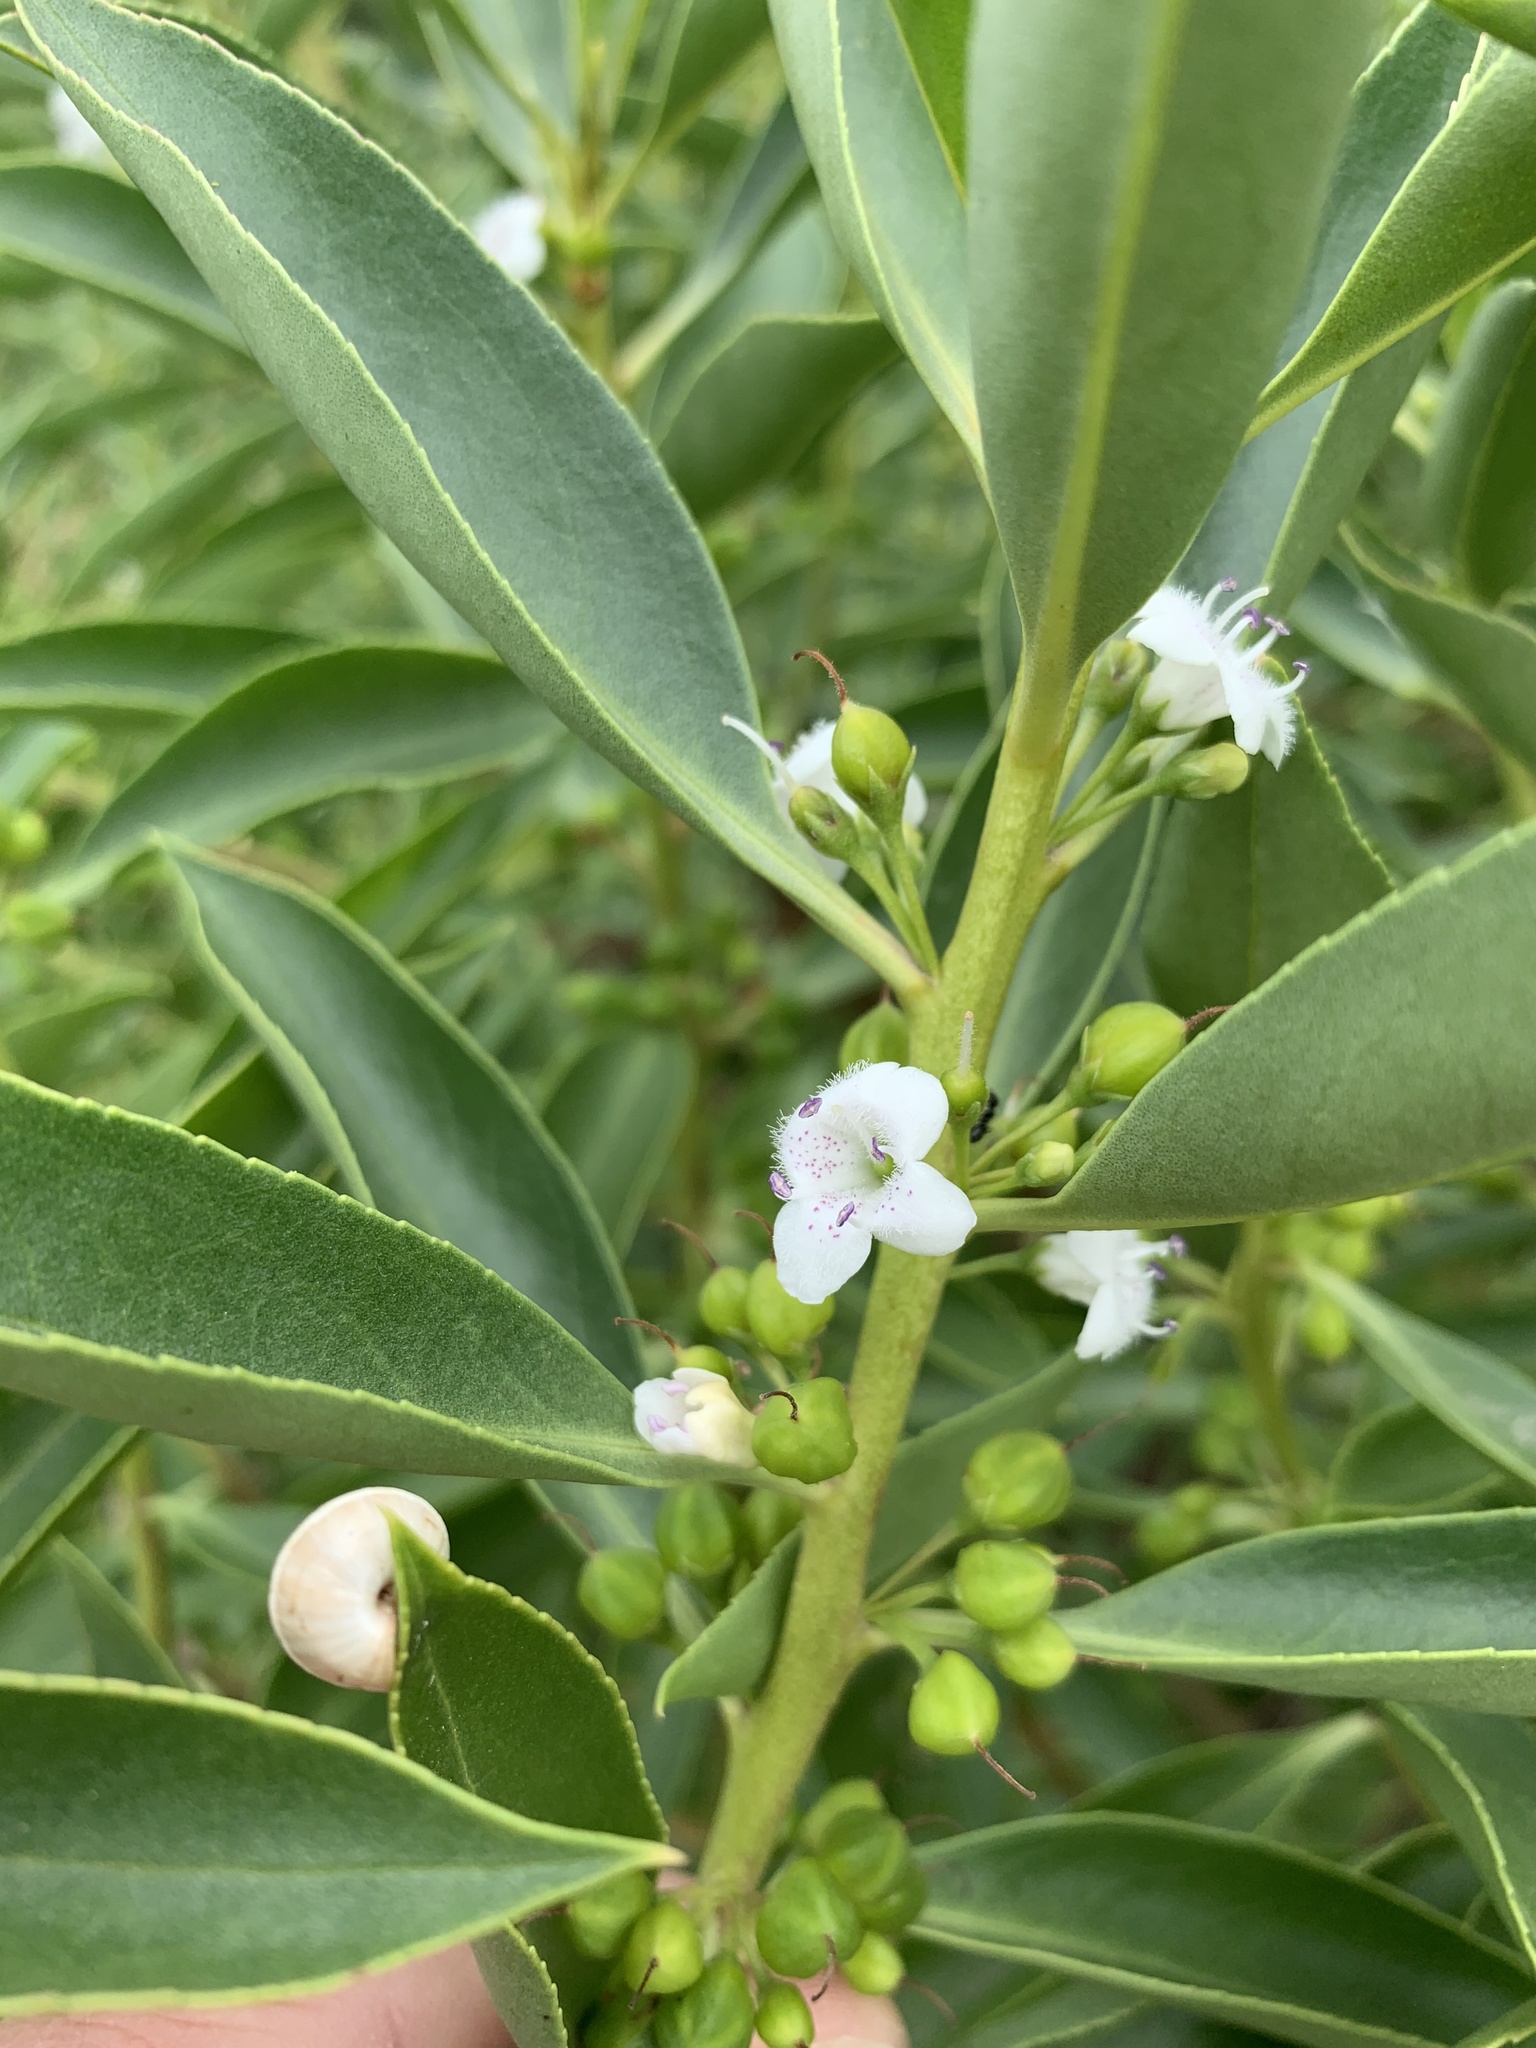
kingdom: Plantae
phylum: Tracheophyta
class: Magnoliopsida
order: Lamiales
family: Scrophulariaceae
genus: Myoporum
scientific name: Myoporum insulare
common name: Common boobialla
